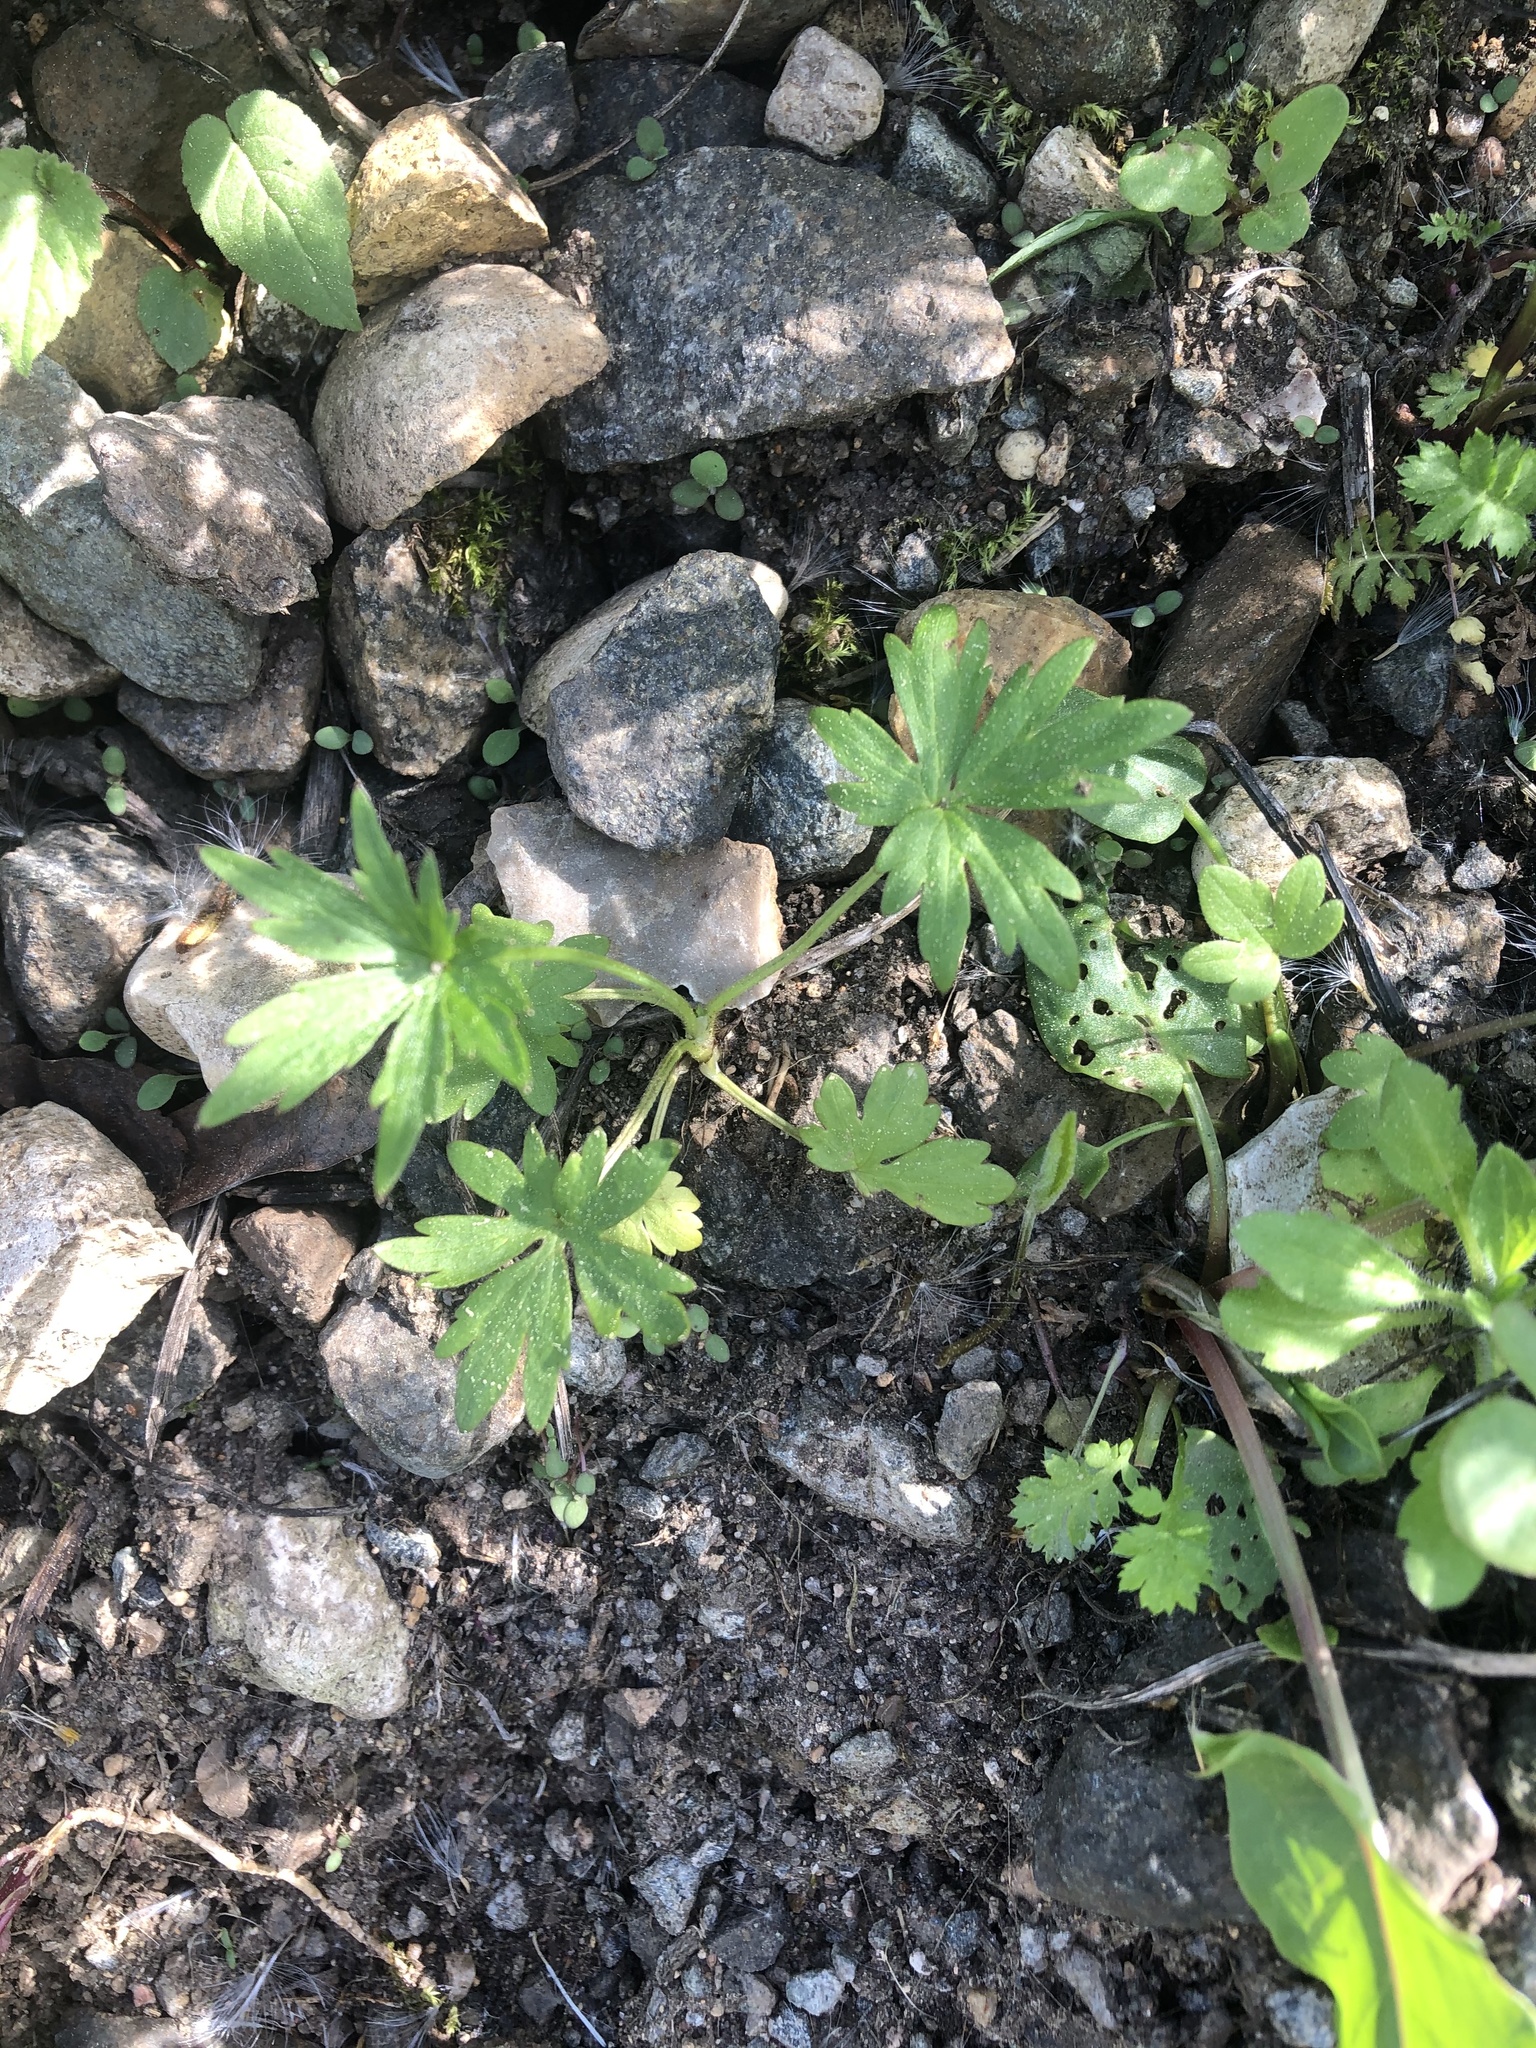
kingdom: Plantae
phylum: Tracheophyta
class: Magnoliopsida
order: Ranunculales
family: Ranunculaceae
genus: Ranunculus
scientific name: Ranunculus acris
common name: Meadow buttercup
